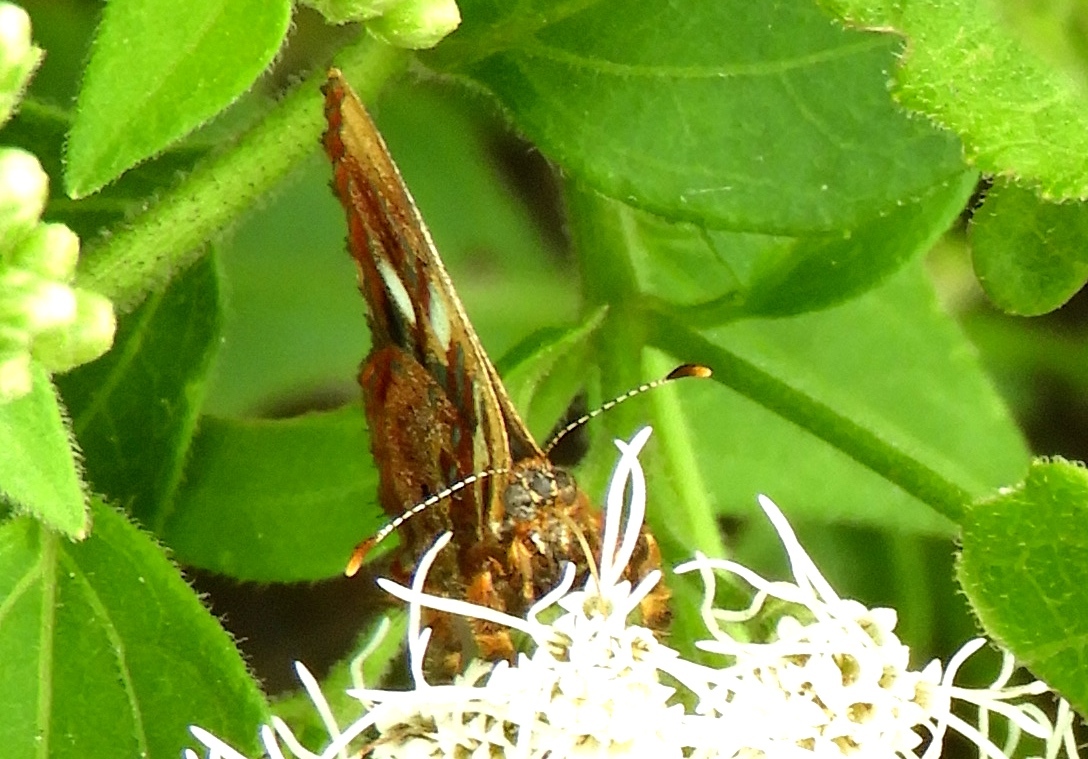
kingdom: Animalia
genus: Anteros
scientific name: Anteros carausius
